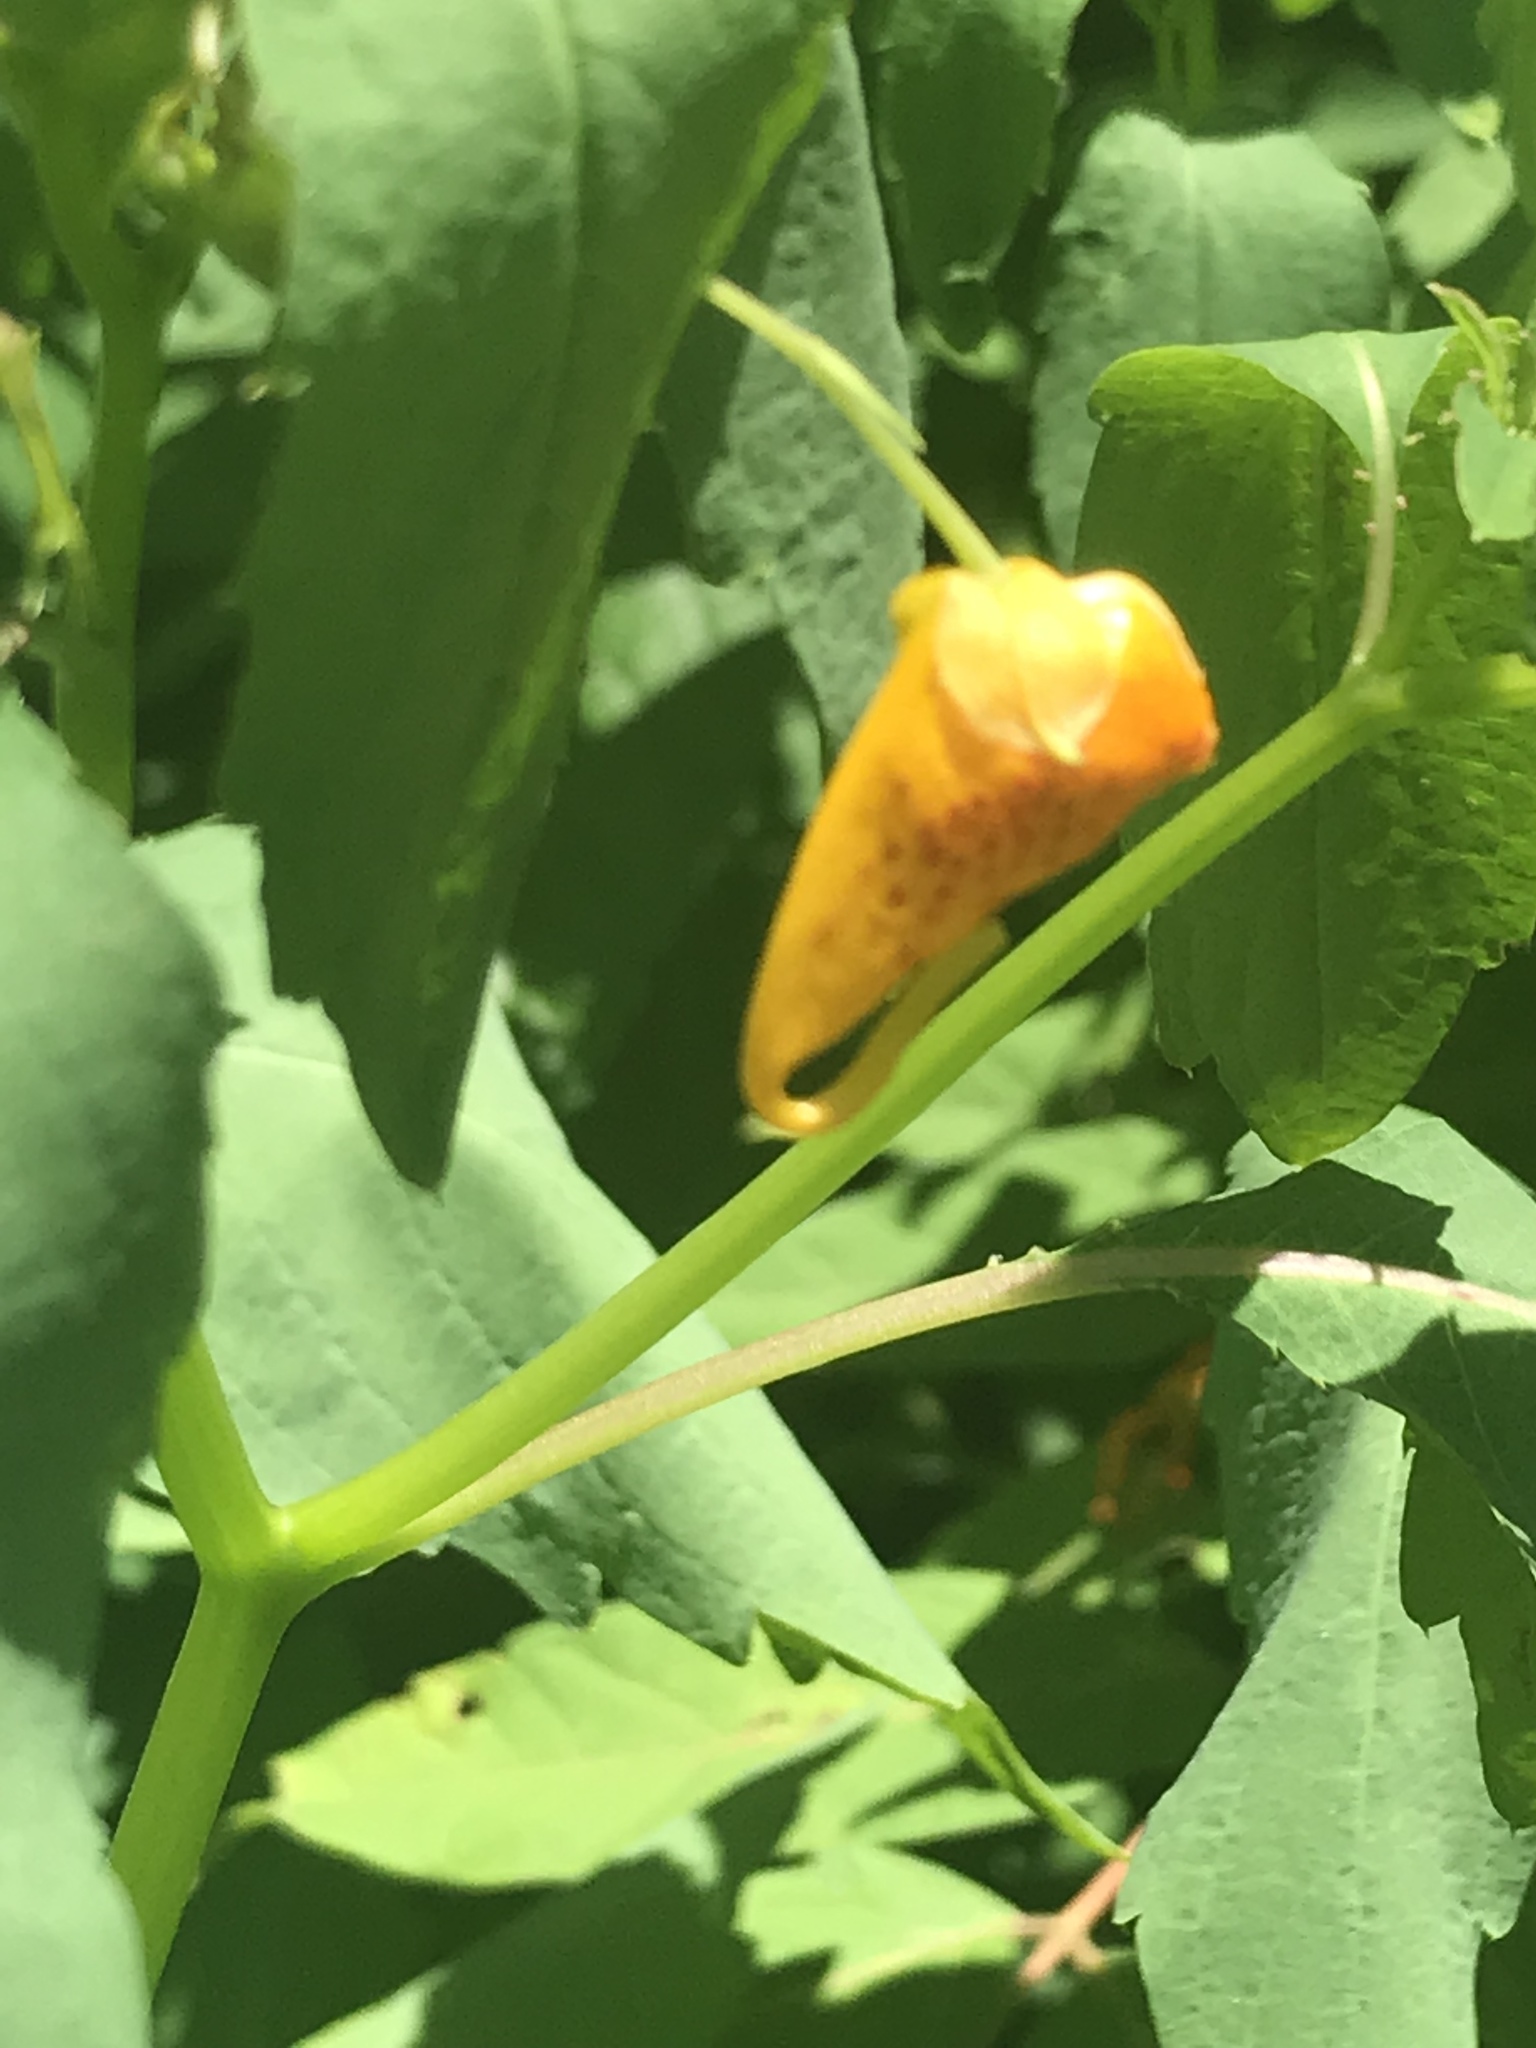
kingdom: Plantae
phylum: Tracheophyta
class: Magnoliopsida
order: Ericales
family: Balsaminaceae
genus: Impatiens
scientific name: Impatiens capensis
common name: Orange balsam
